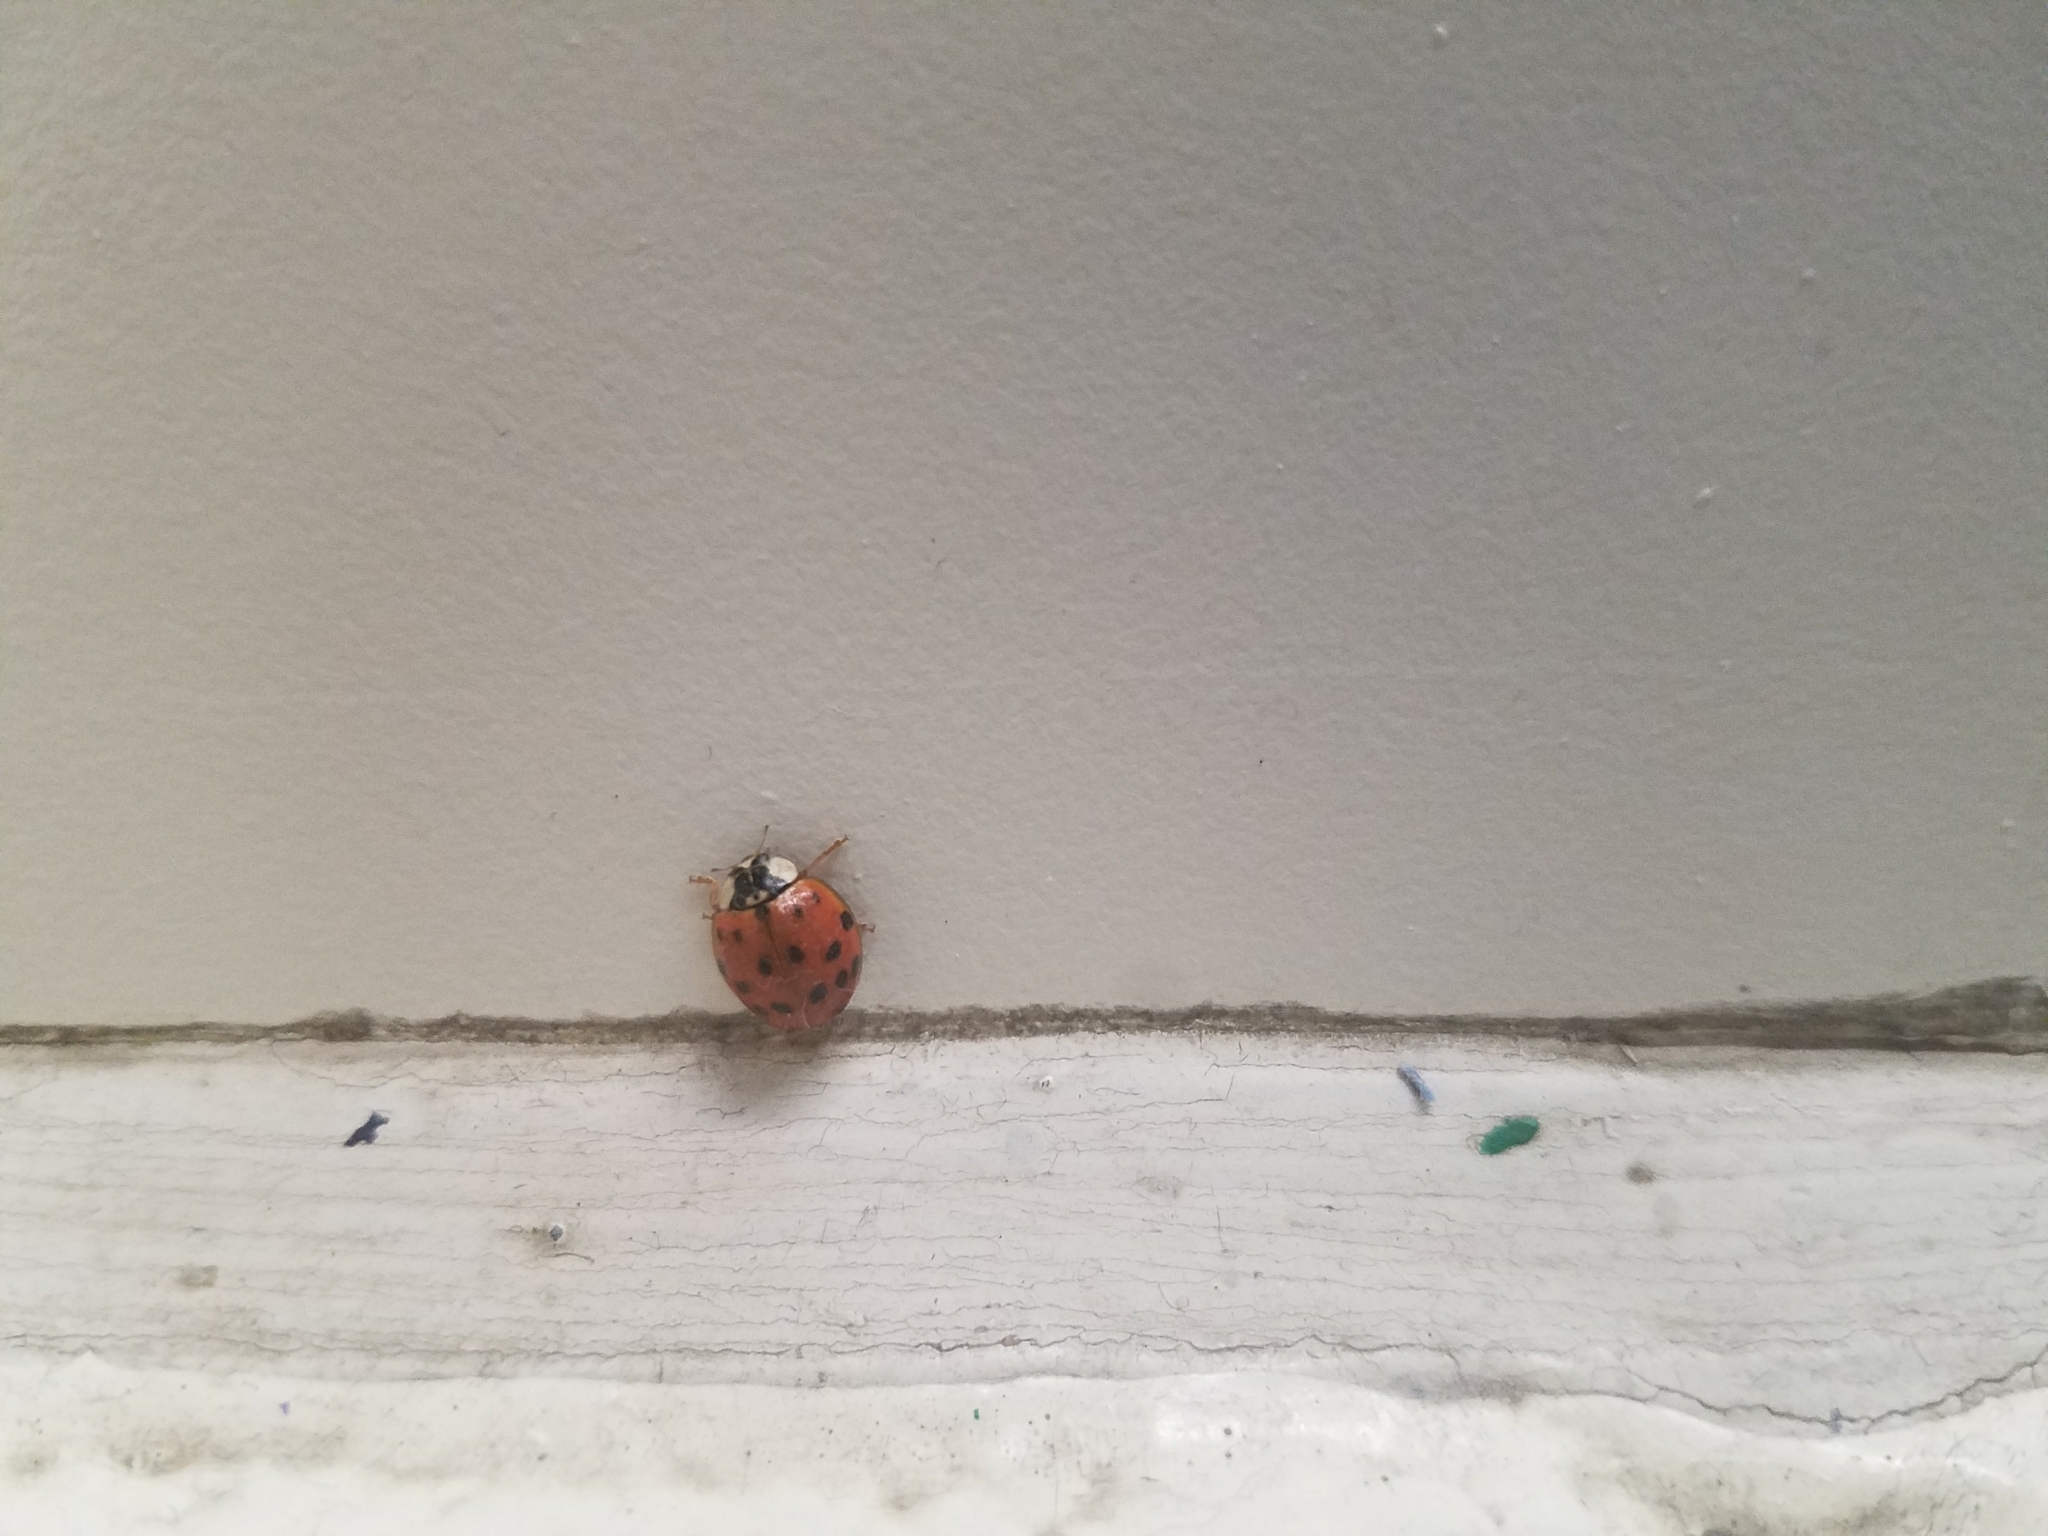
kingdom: Animalia
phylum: Arthropoda
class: Insecta
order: Coleoptera
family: Coccinellidae
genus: Harmonia
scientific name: Harmonia axyridis
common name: Harlequin ladybird
